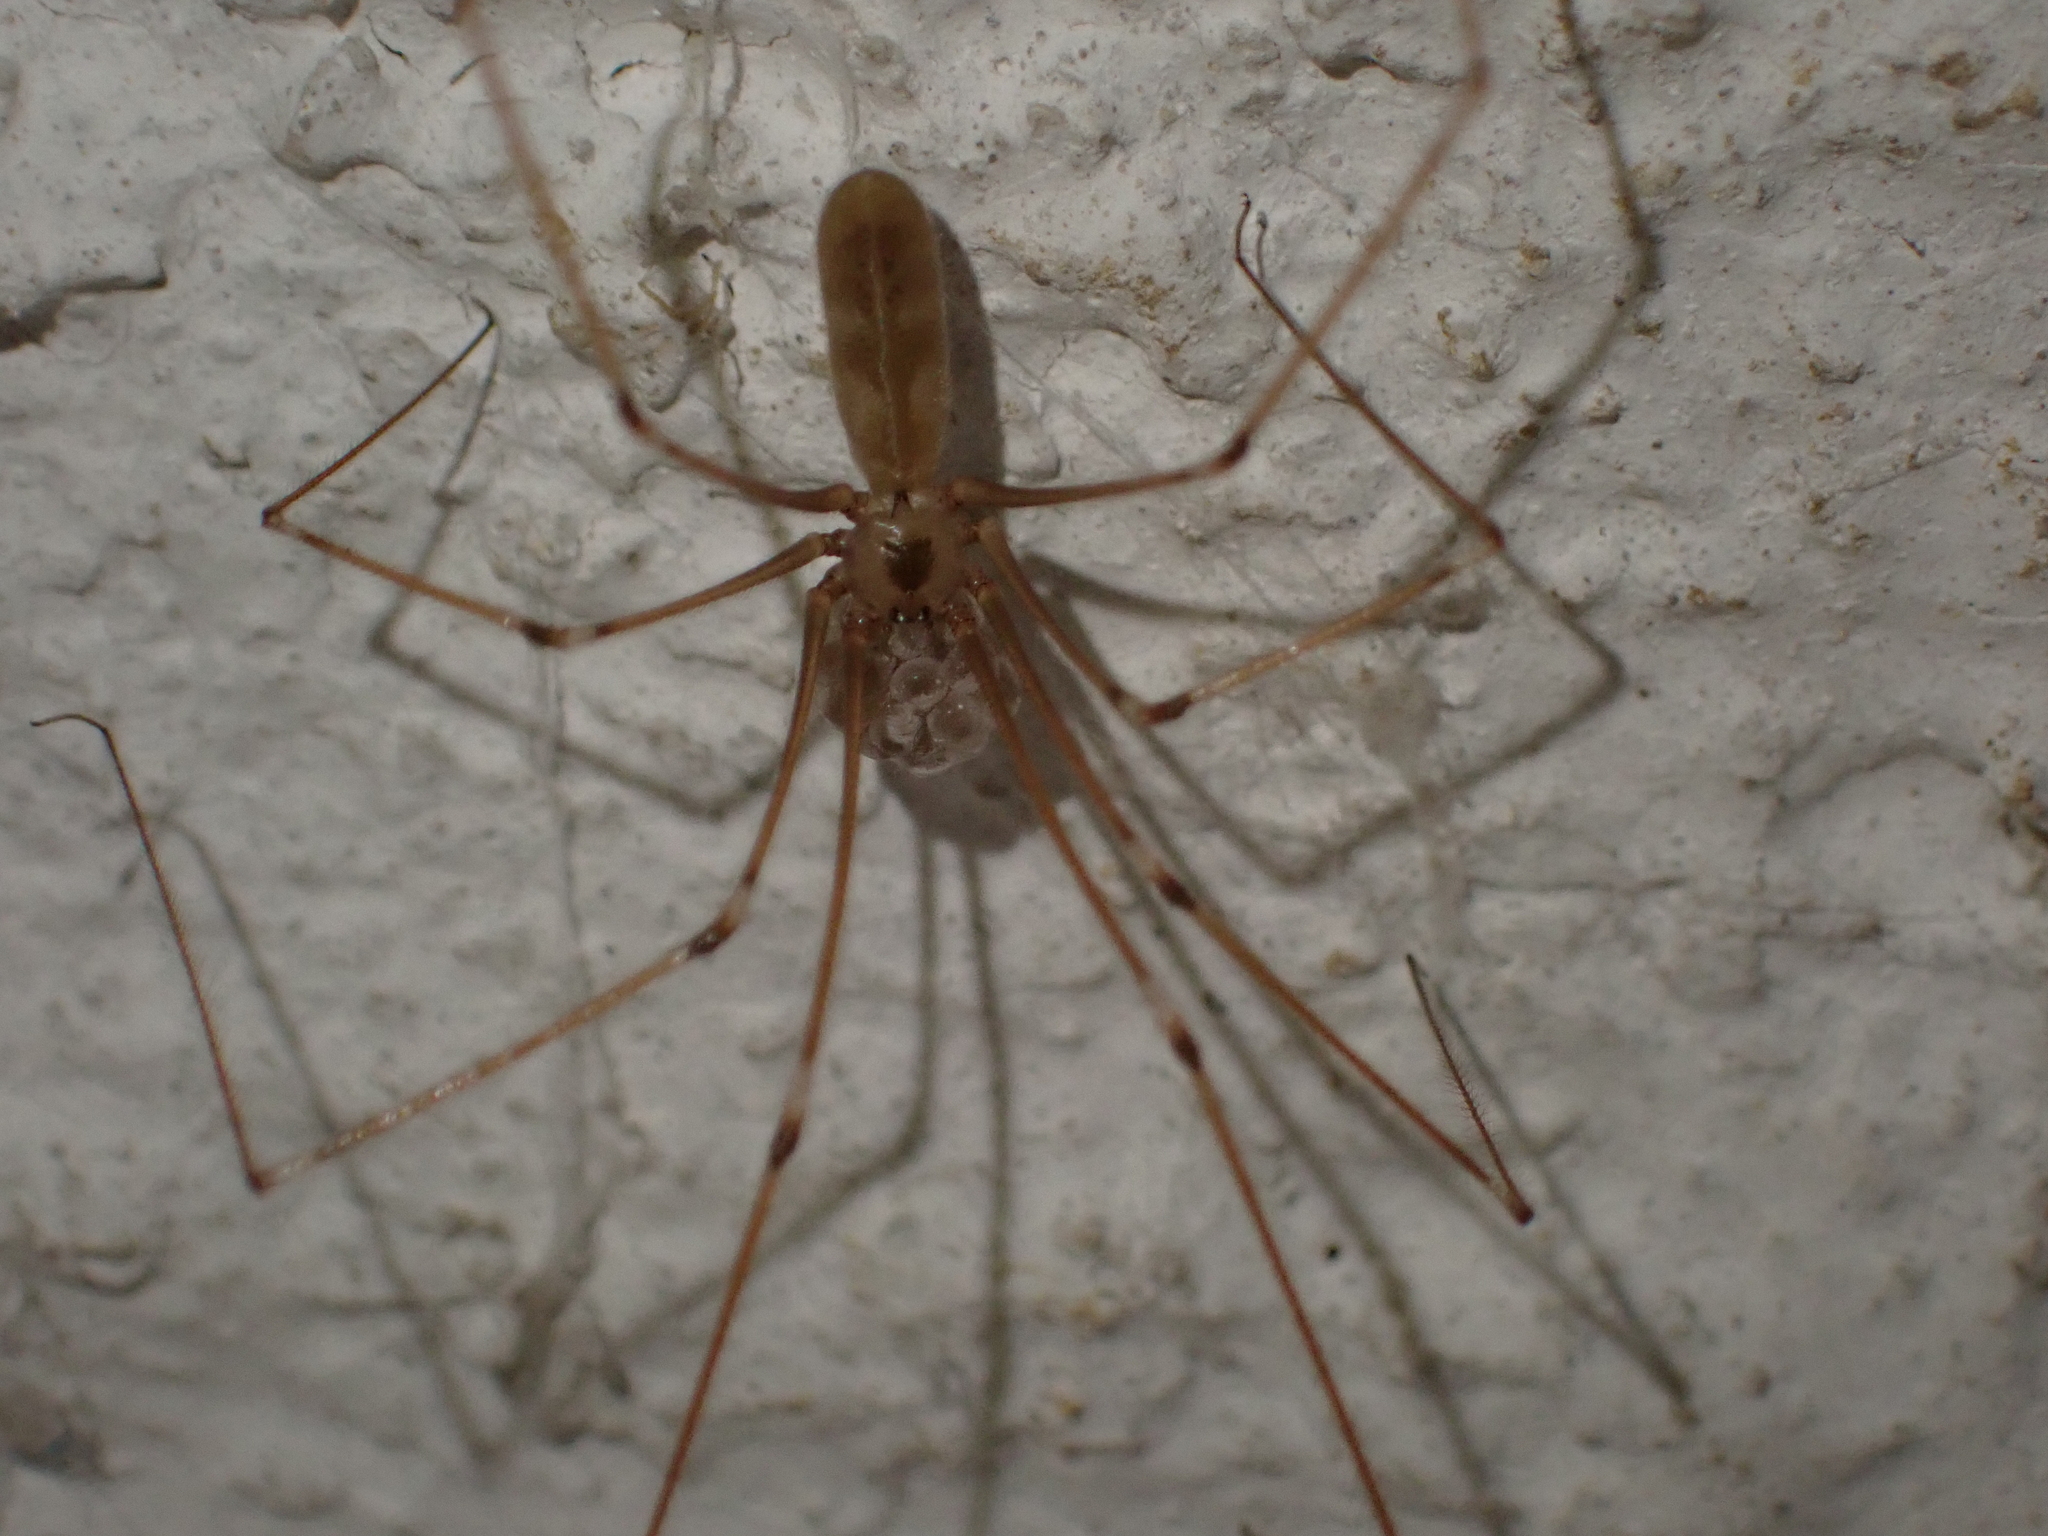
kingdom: Animalia
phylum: Arthropoda
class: Arachnida
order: Araneae
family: Pholcidae
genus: Pholcus
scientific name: Pholcus phalangioides
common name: Longbodied cellar spider
